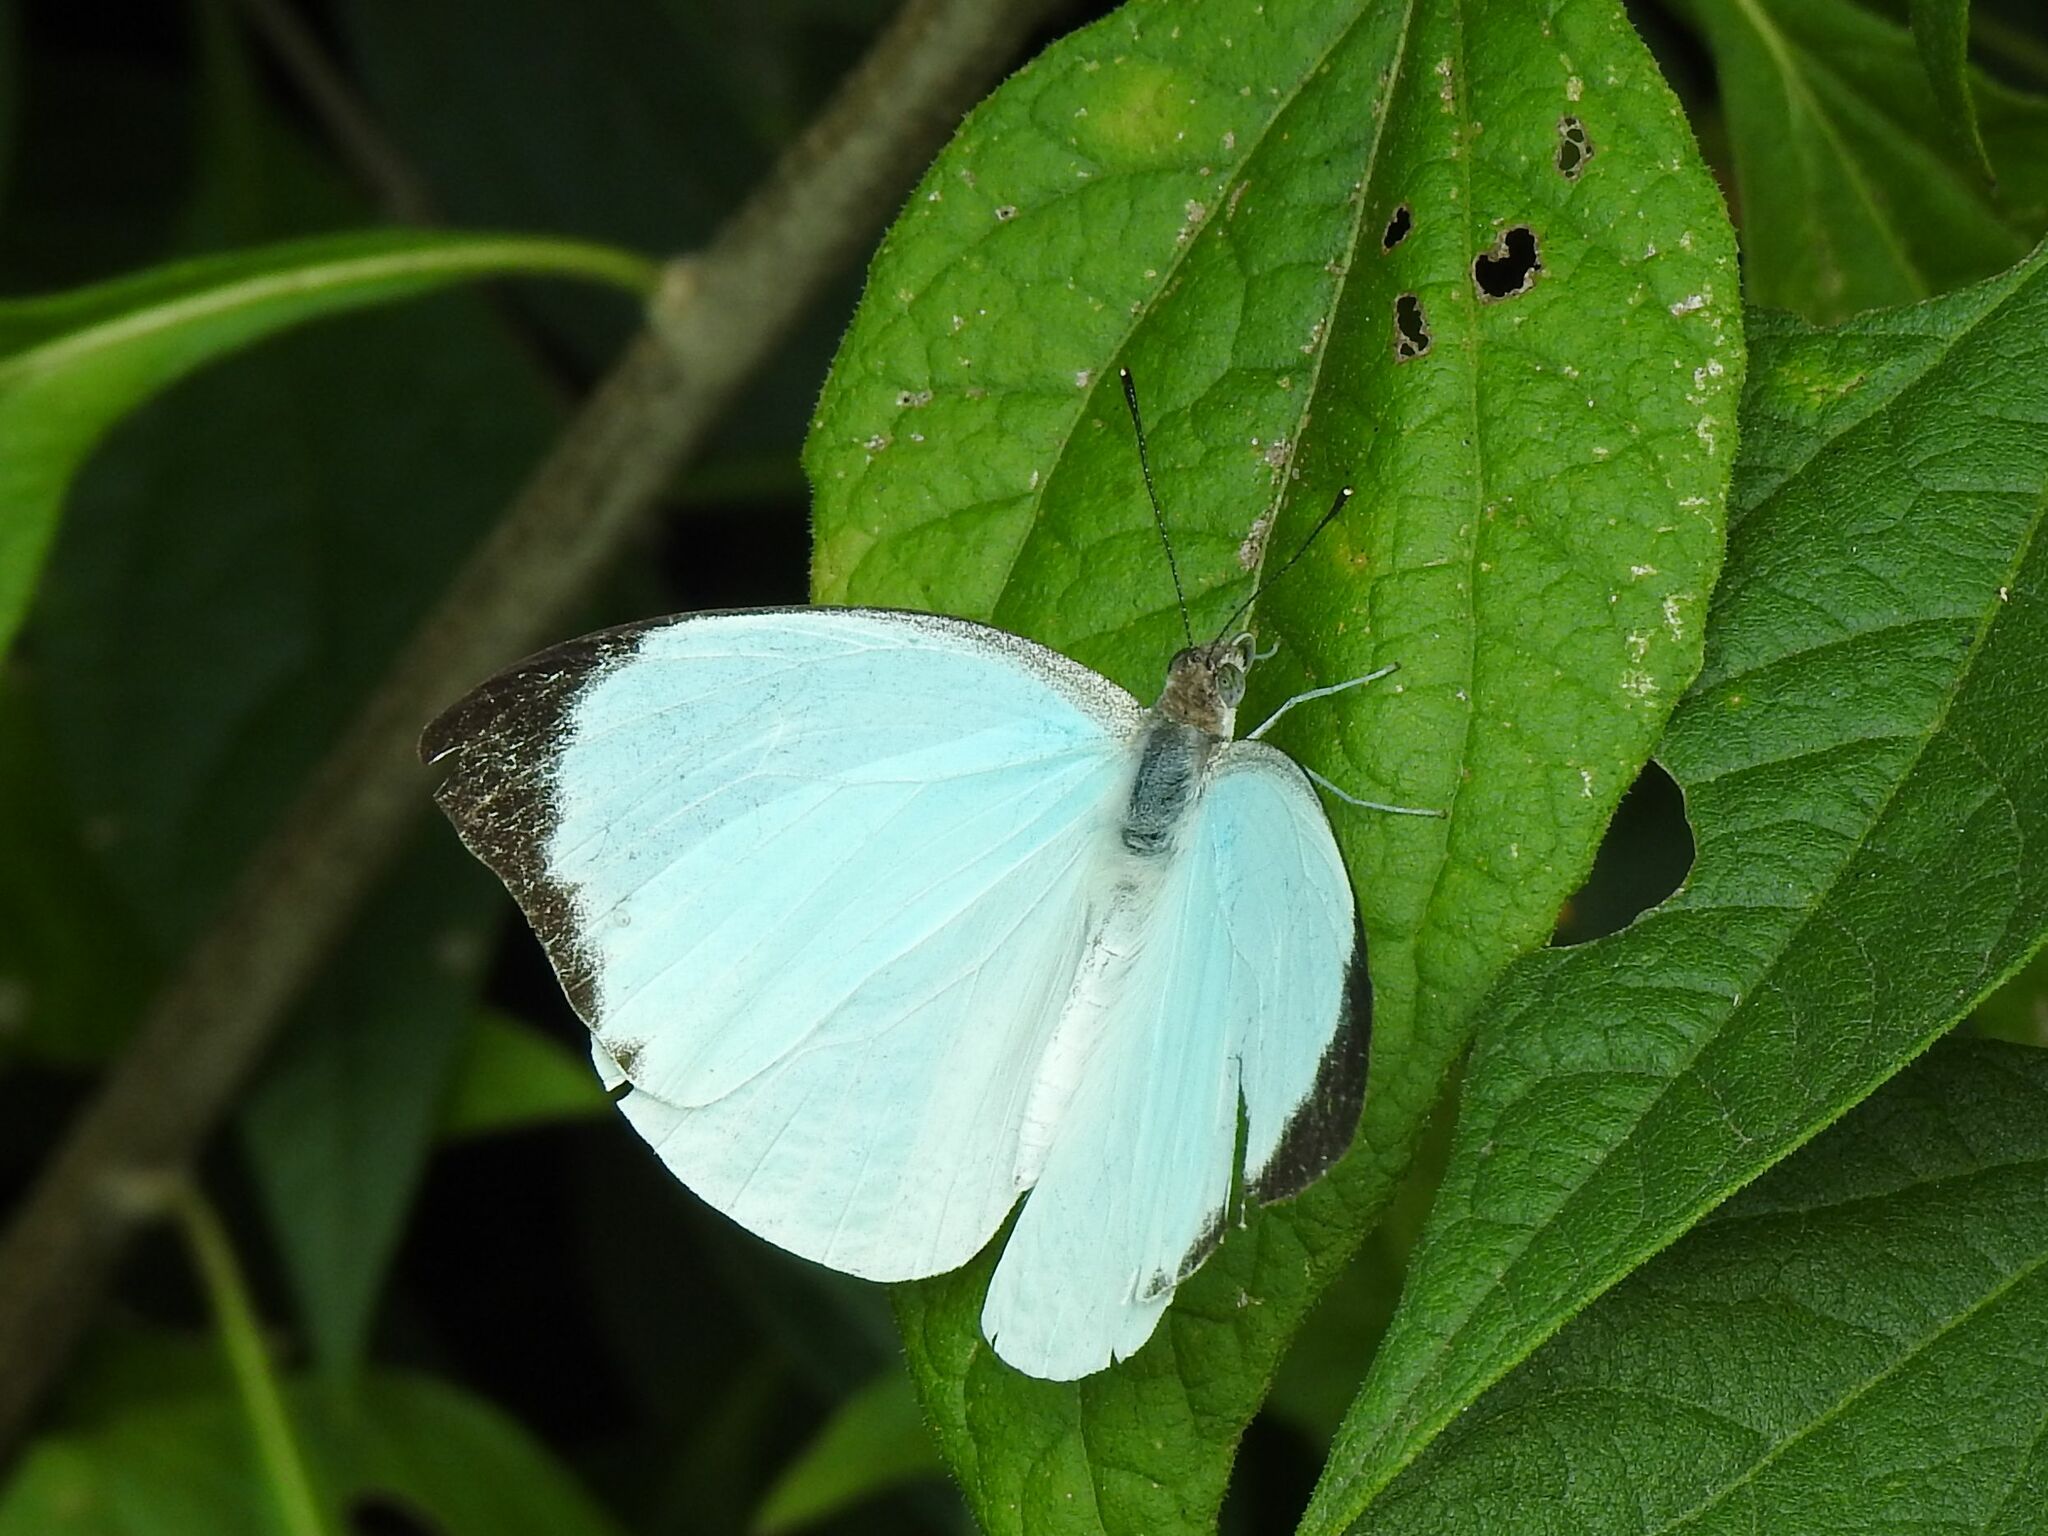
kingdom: Animalia
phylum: Arthropoda
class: Insecta
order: Lepidoptera
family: Pieridae
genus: Nepheronia
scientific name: Nepheronia thalassina
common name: Cambridge vagrant
